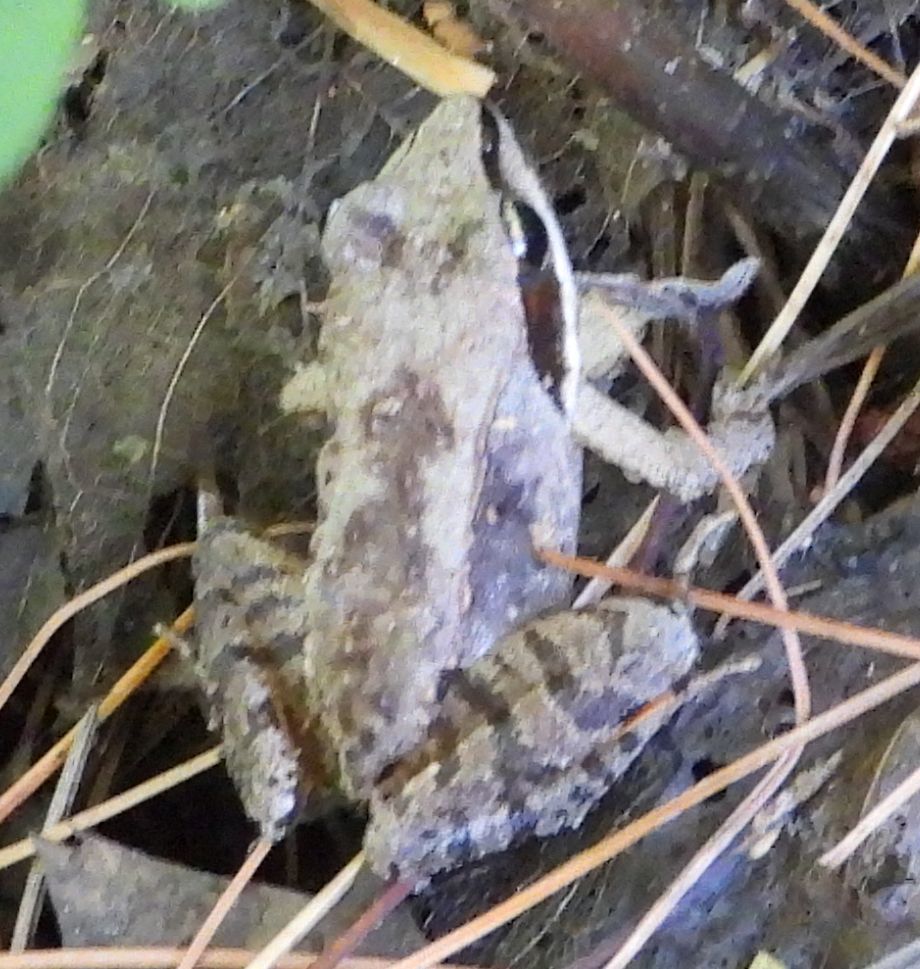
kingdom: Animalia
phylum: Chordata
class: Amphibia
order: Anura
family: Ranidae
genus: Lithobates
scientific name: Lithobates sylvaticus
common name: Wood frog
